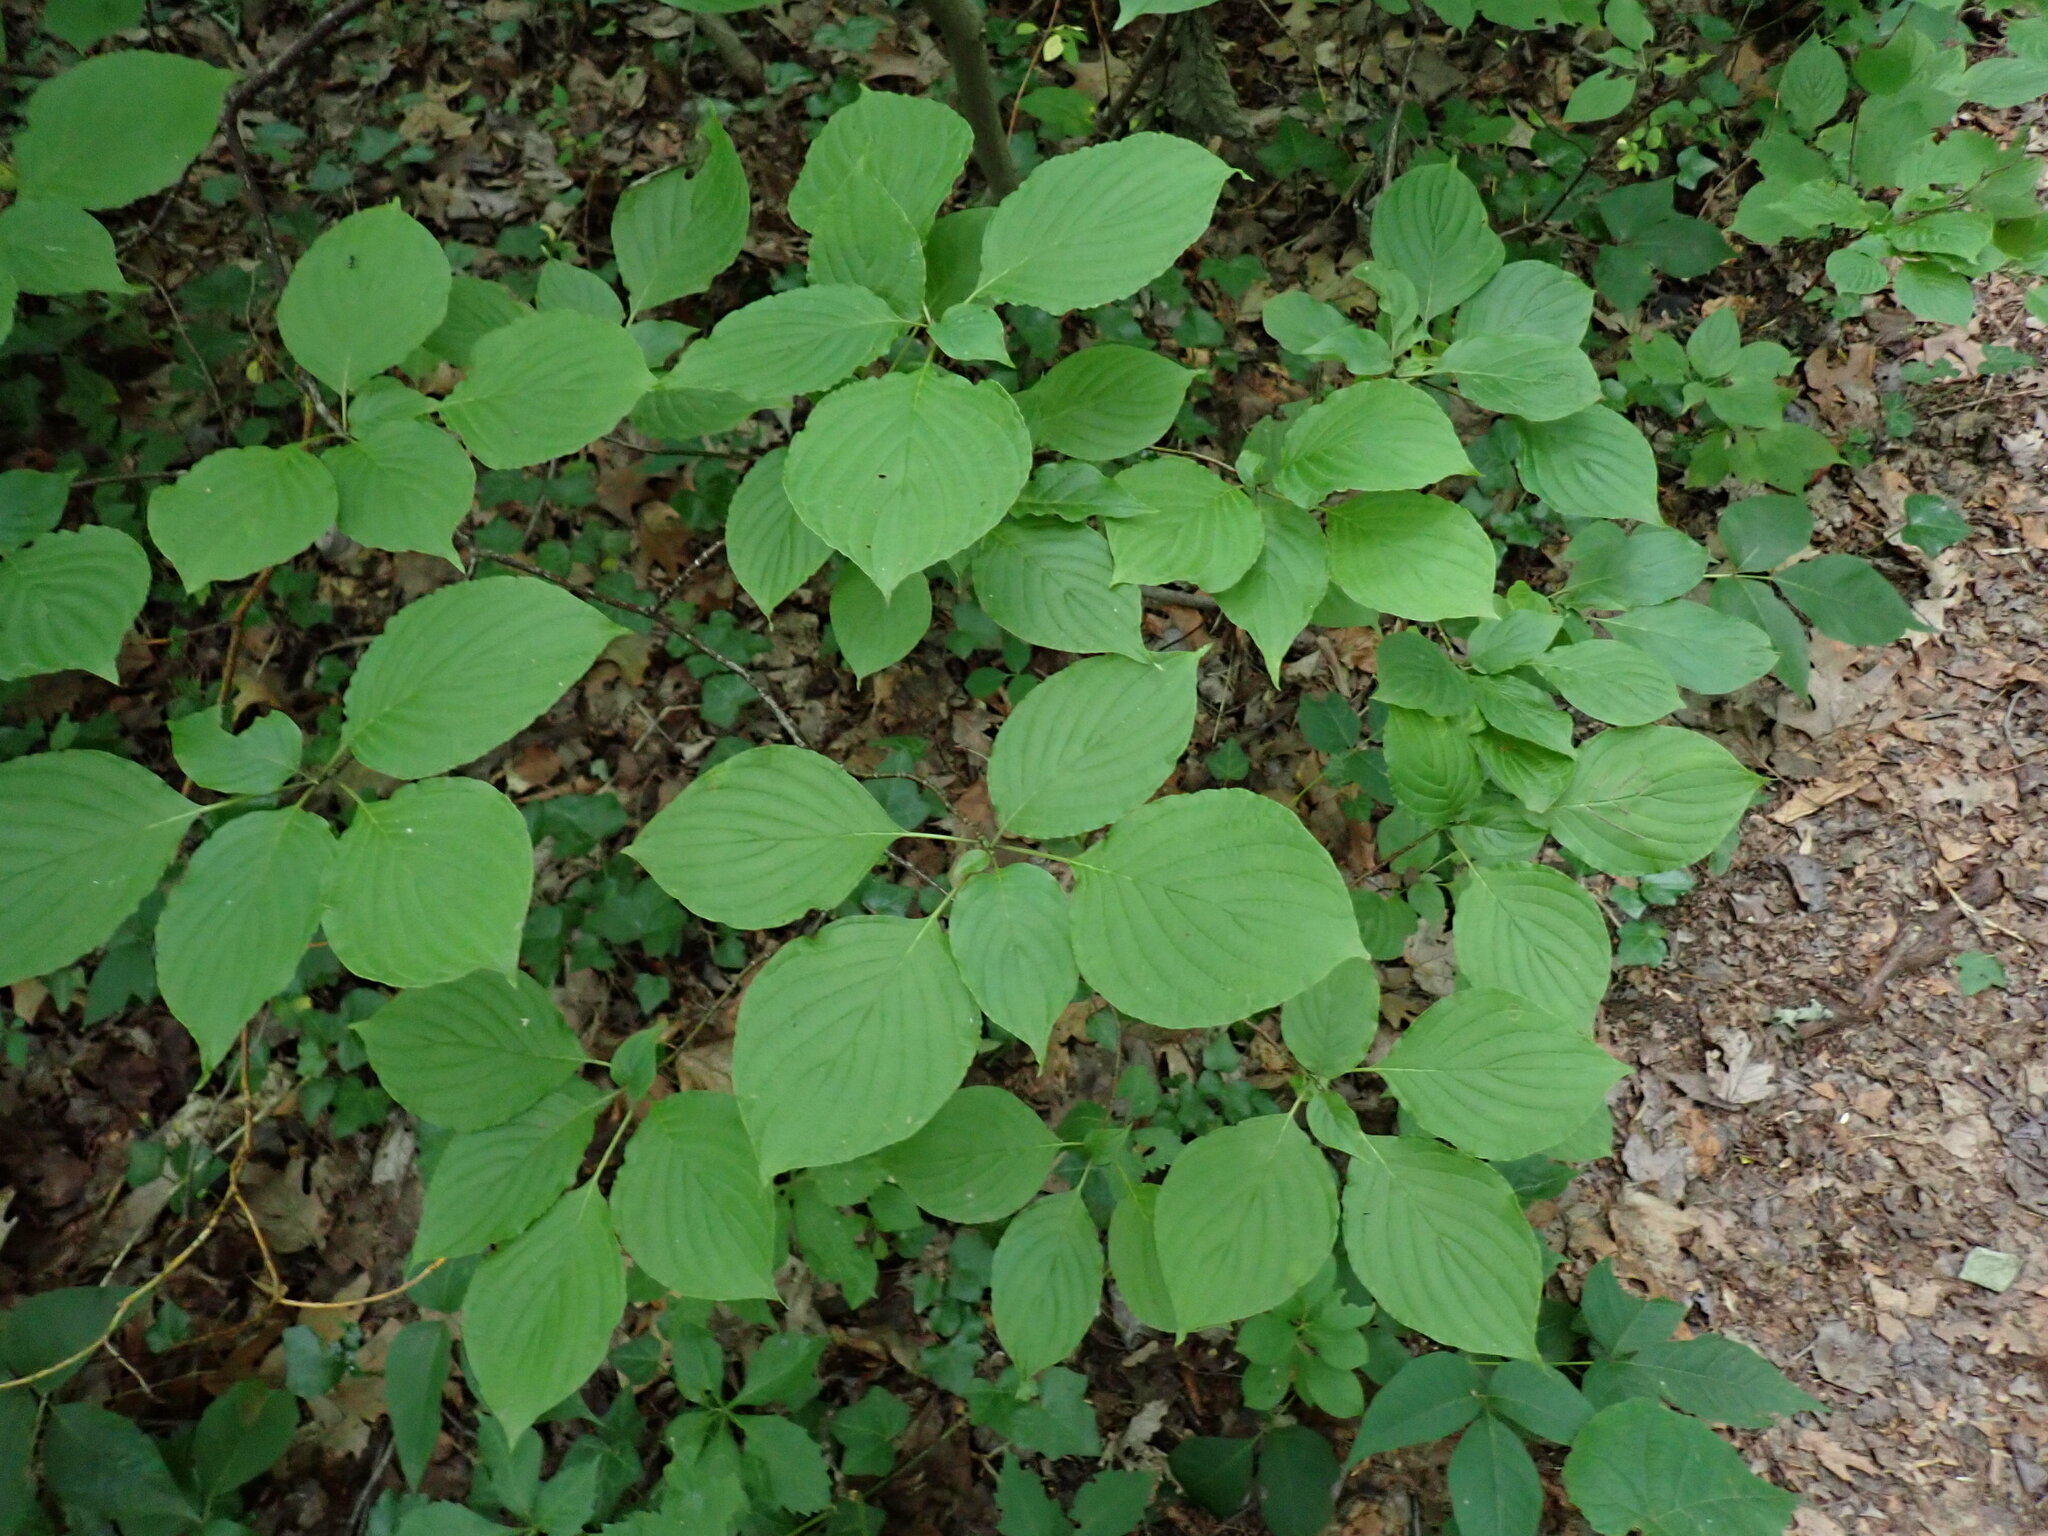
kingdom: Plantae
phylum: Tracheophyta
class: Magnoliopsida
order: Cornales
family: Cornaceae
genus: Cornus
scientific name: Cornus alternifolia
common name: Pagoda dogwood
